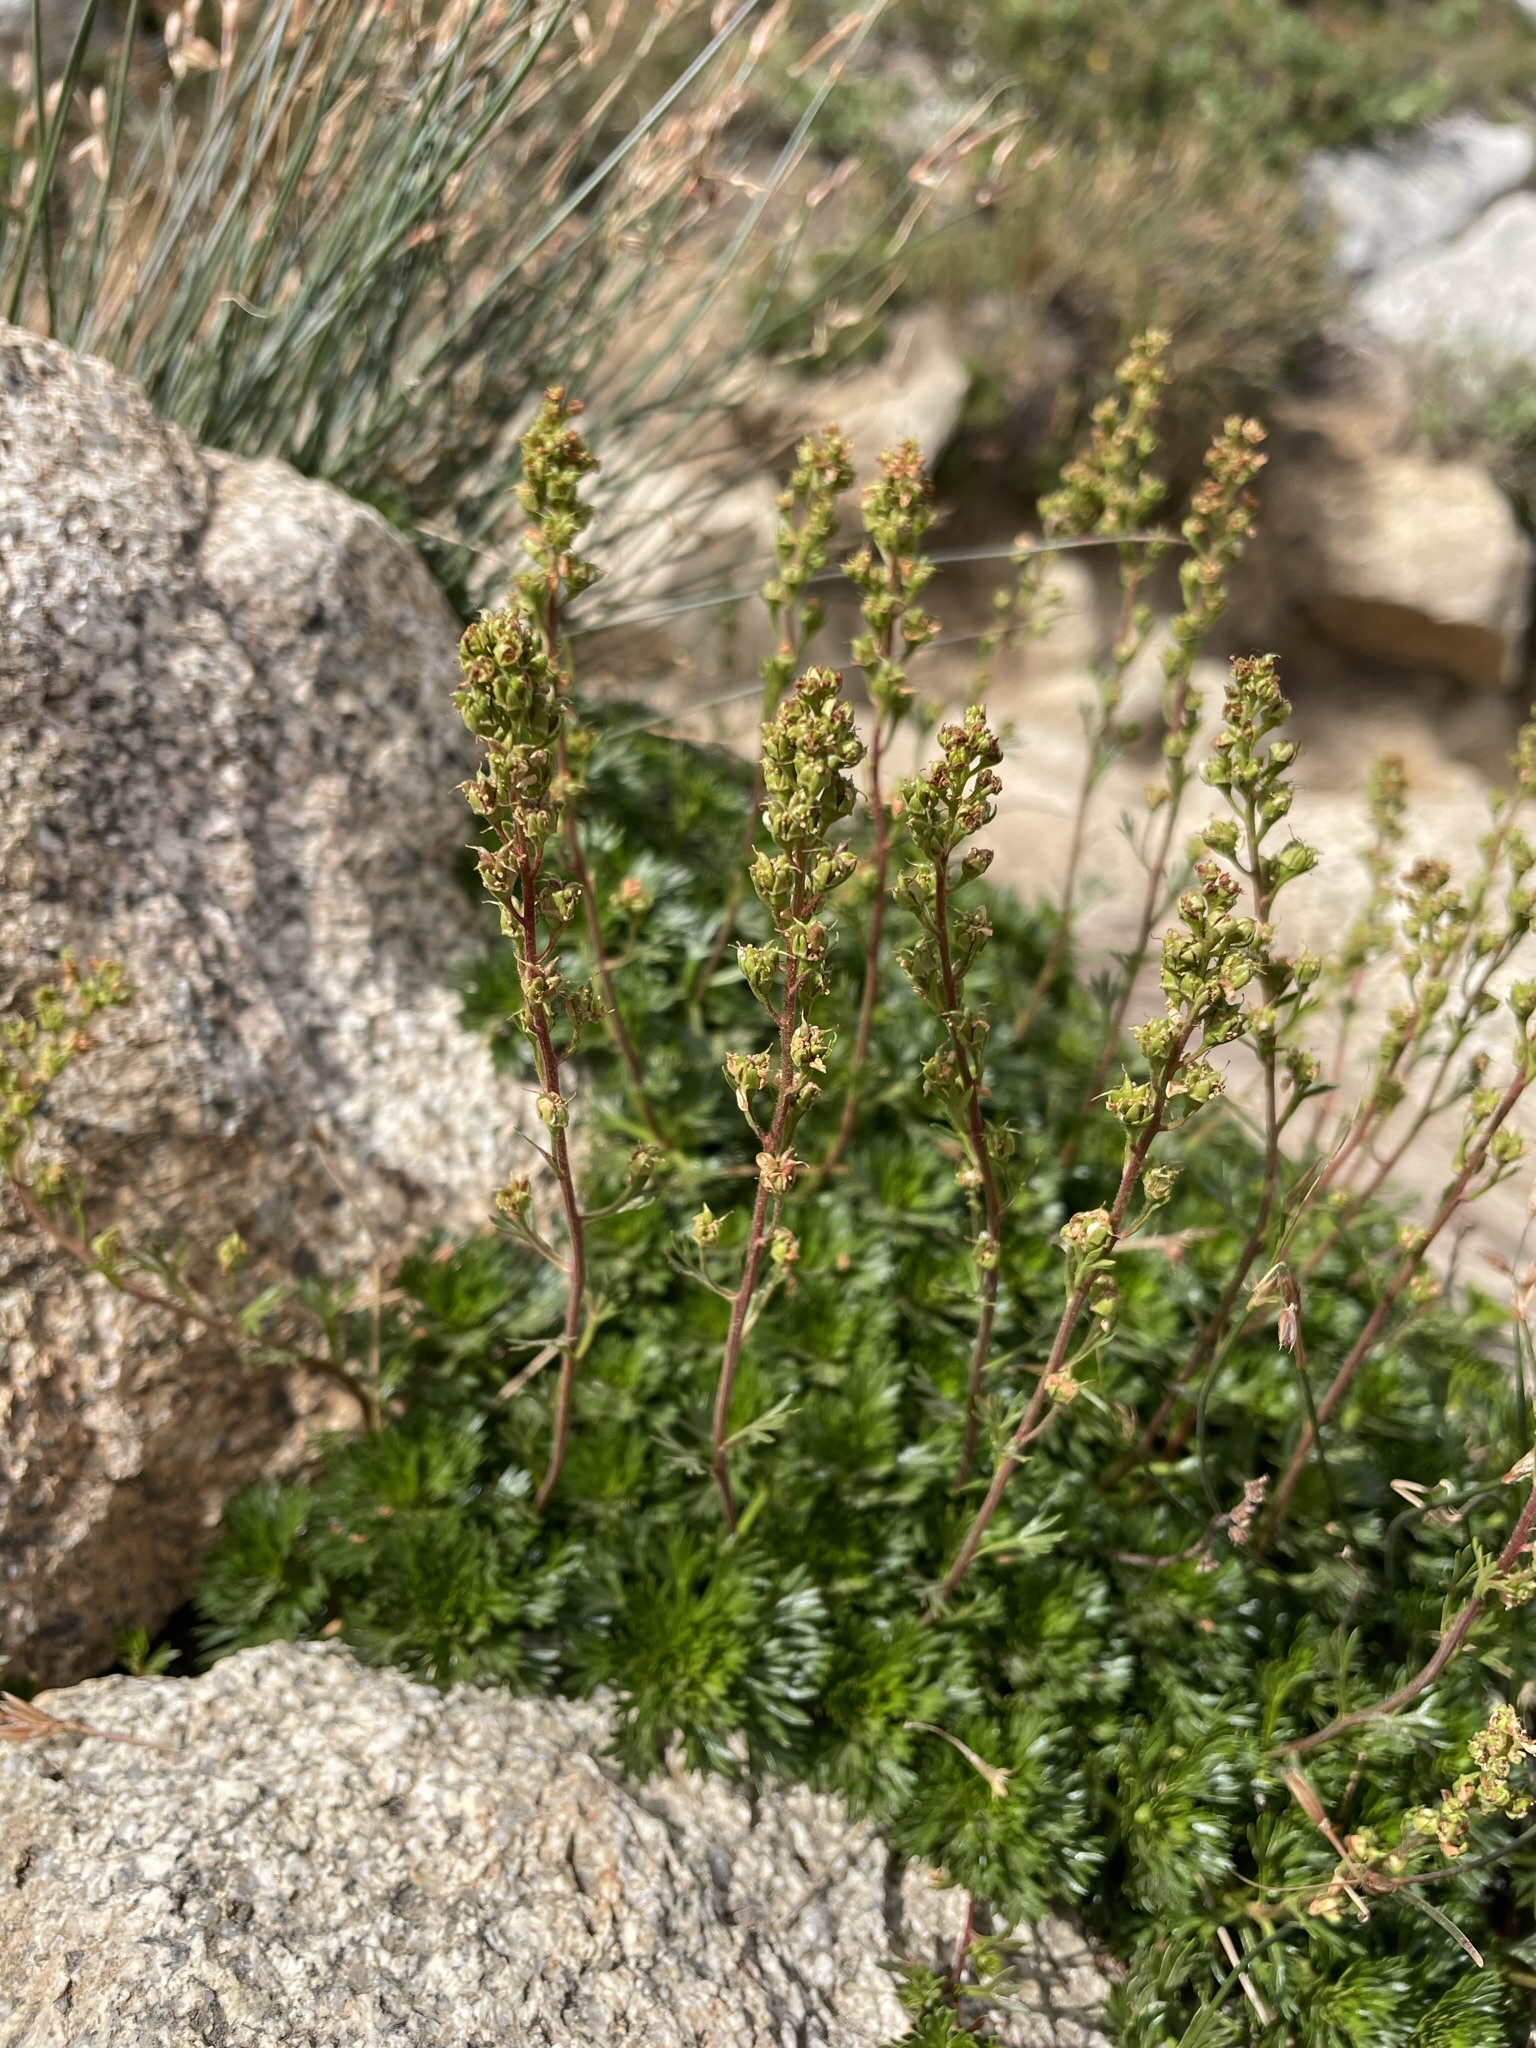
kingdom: Plantae
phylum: Tracheophyta
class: Magnoliopsida
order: Rosales
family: Rosaceae
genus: Luetkea
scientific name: Luetkea pectinata
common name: Partridgefoot
